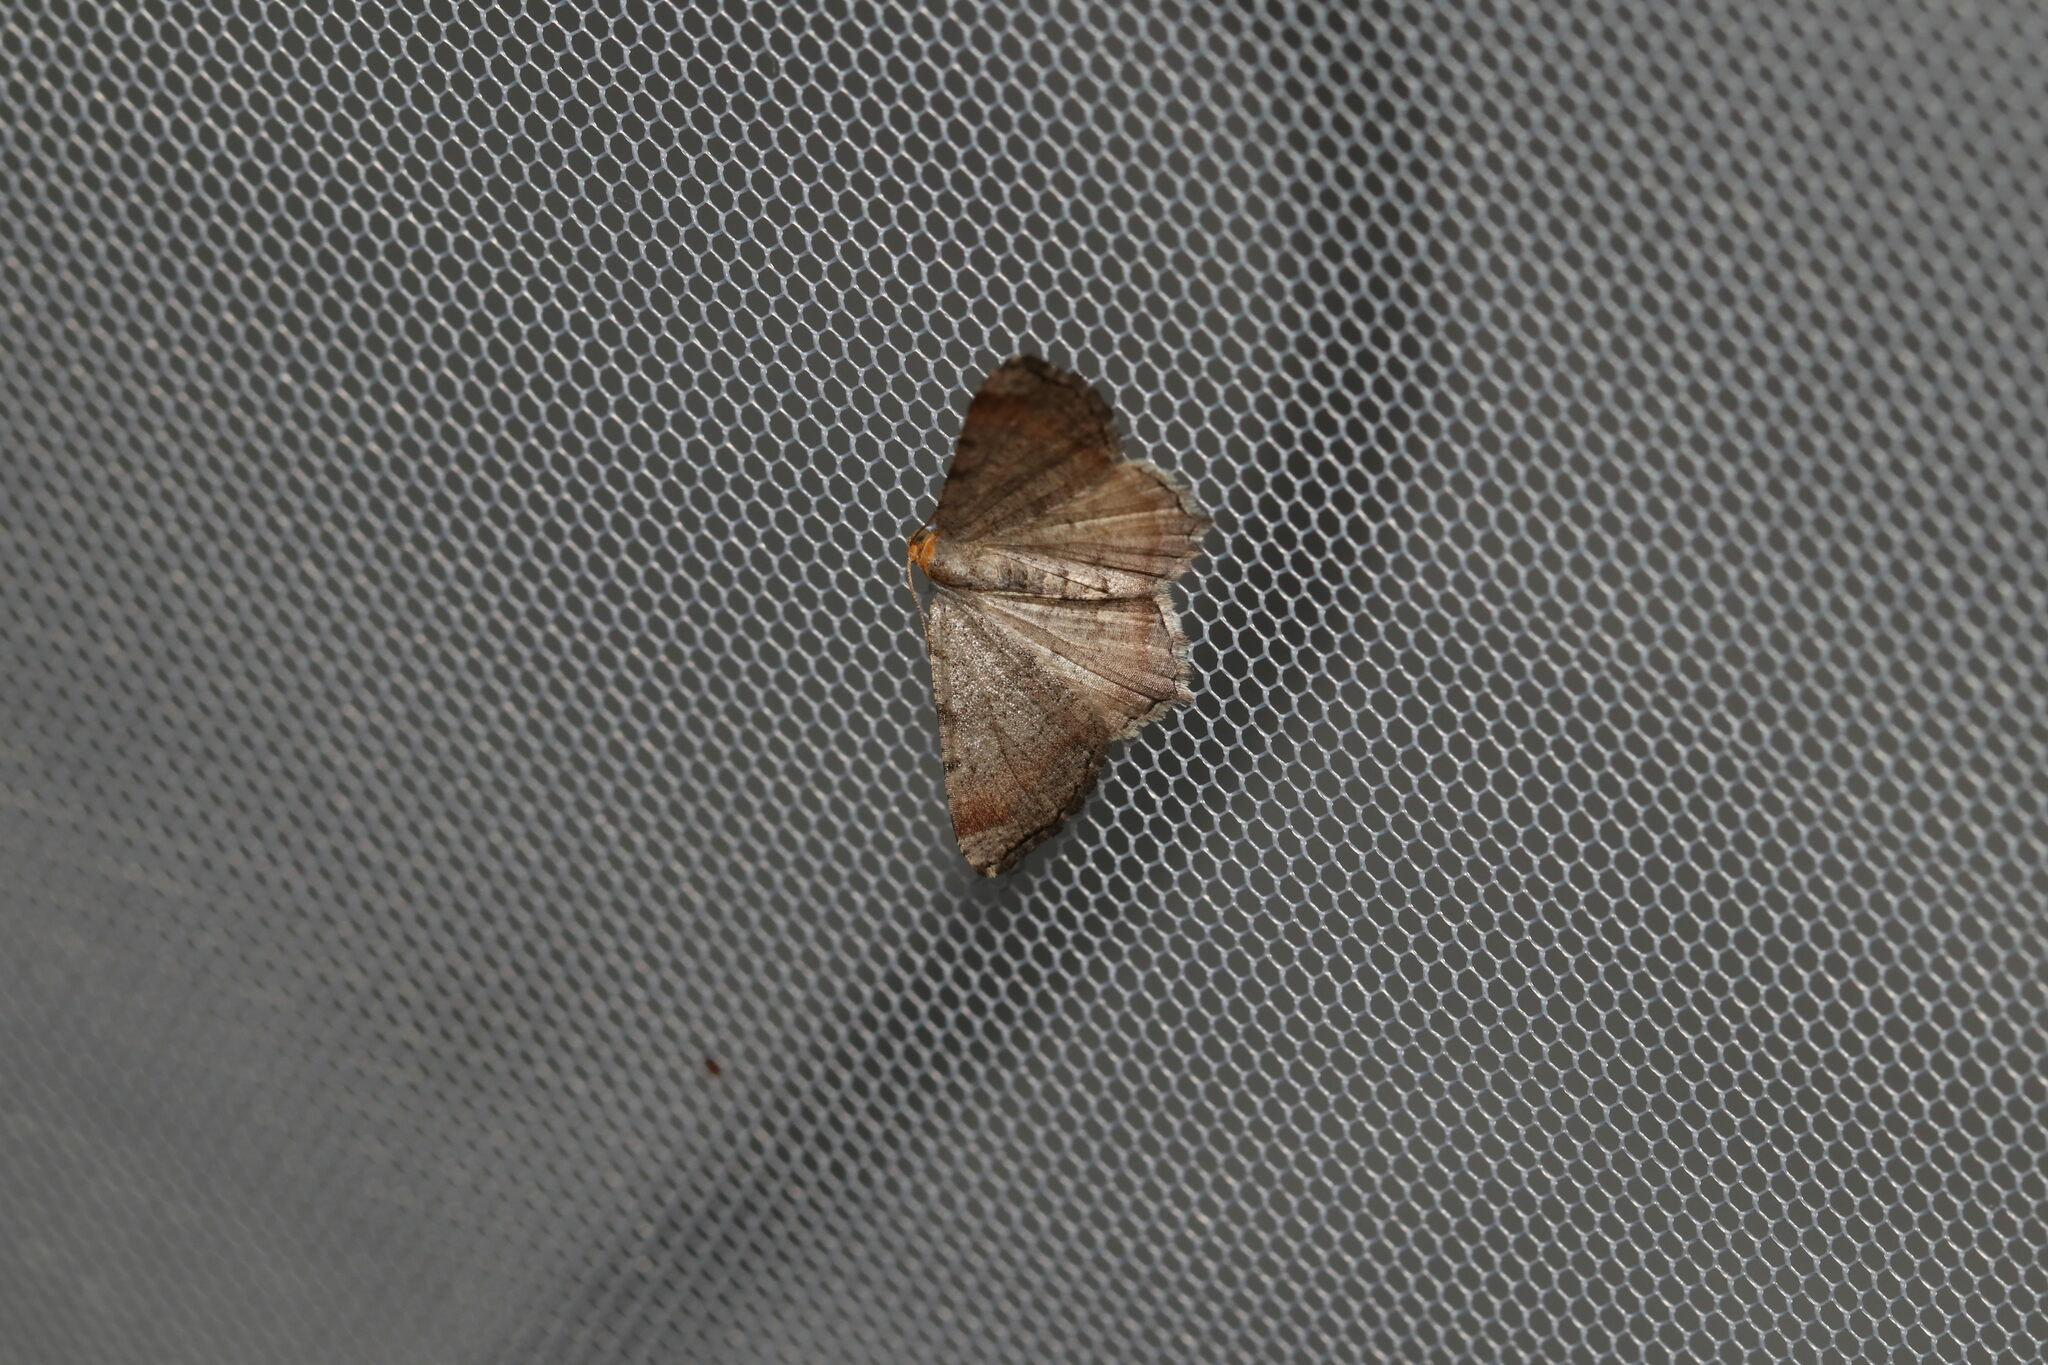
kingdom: Animalia
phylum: Arthropoda
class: Insecta
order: Lepidoptera
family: Geometridae
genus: Macaria
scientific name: Macaria minorata
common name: Minor angle moth
